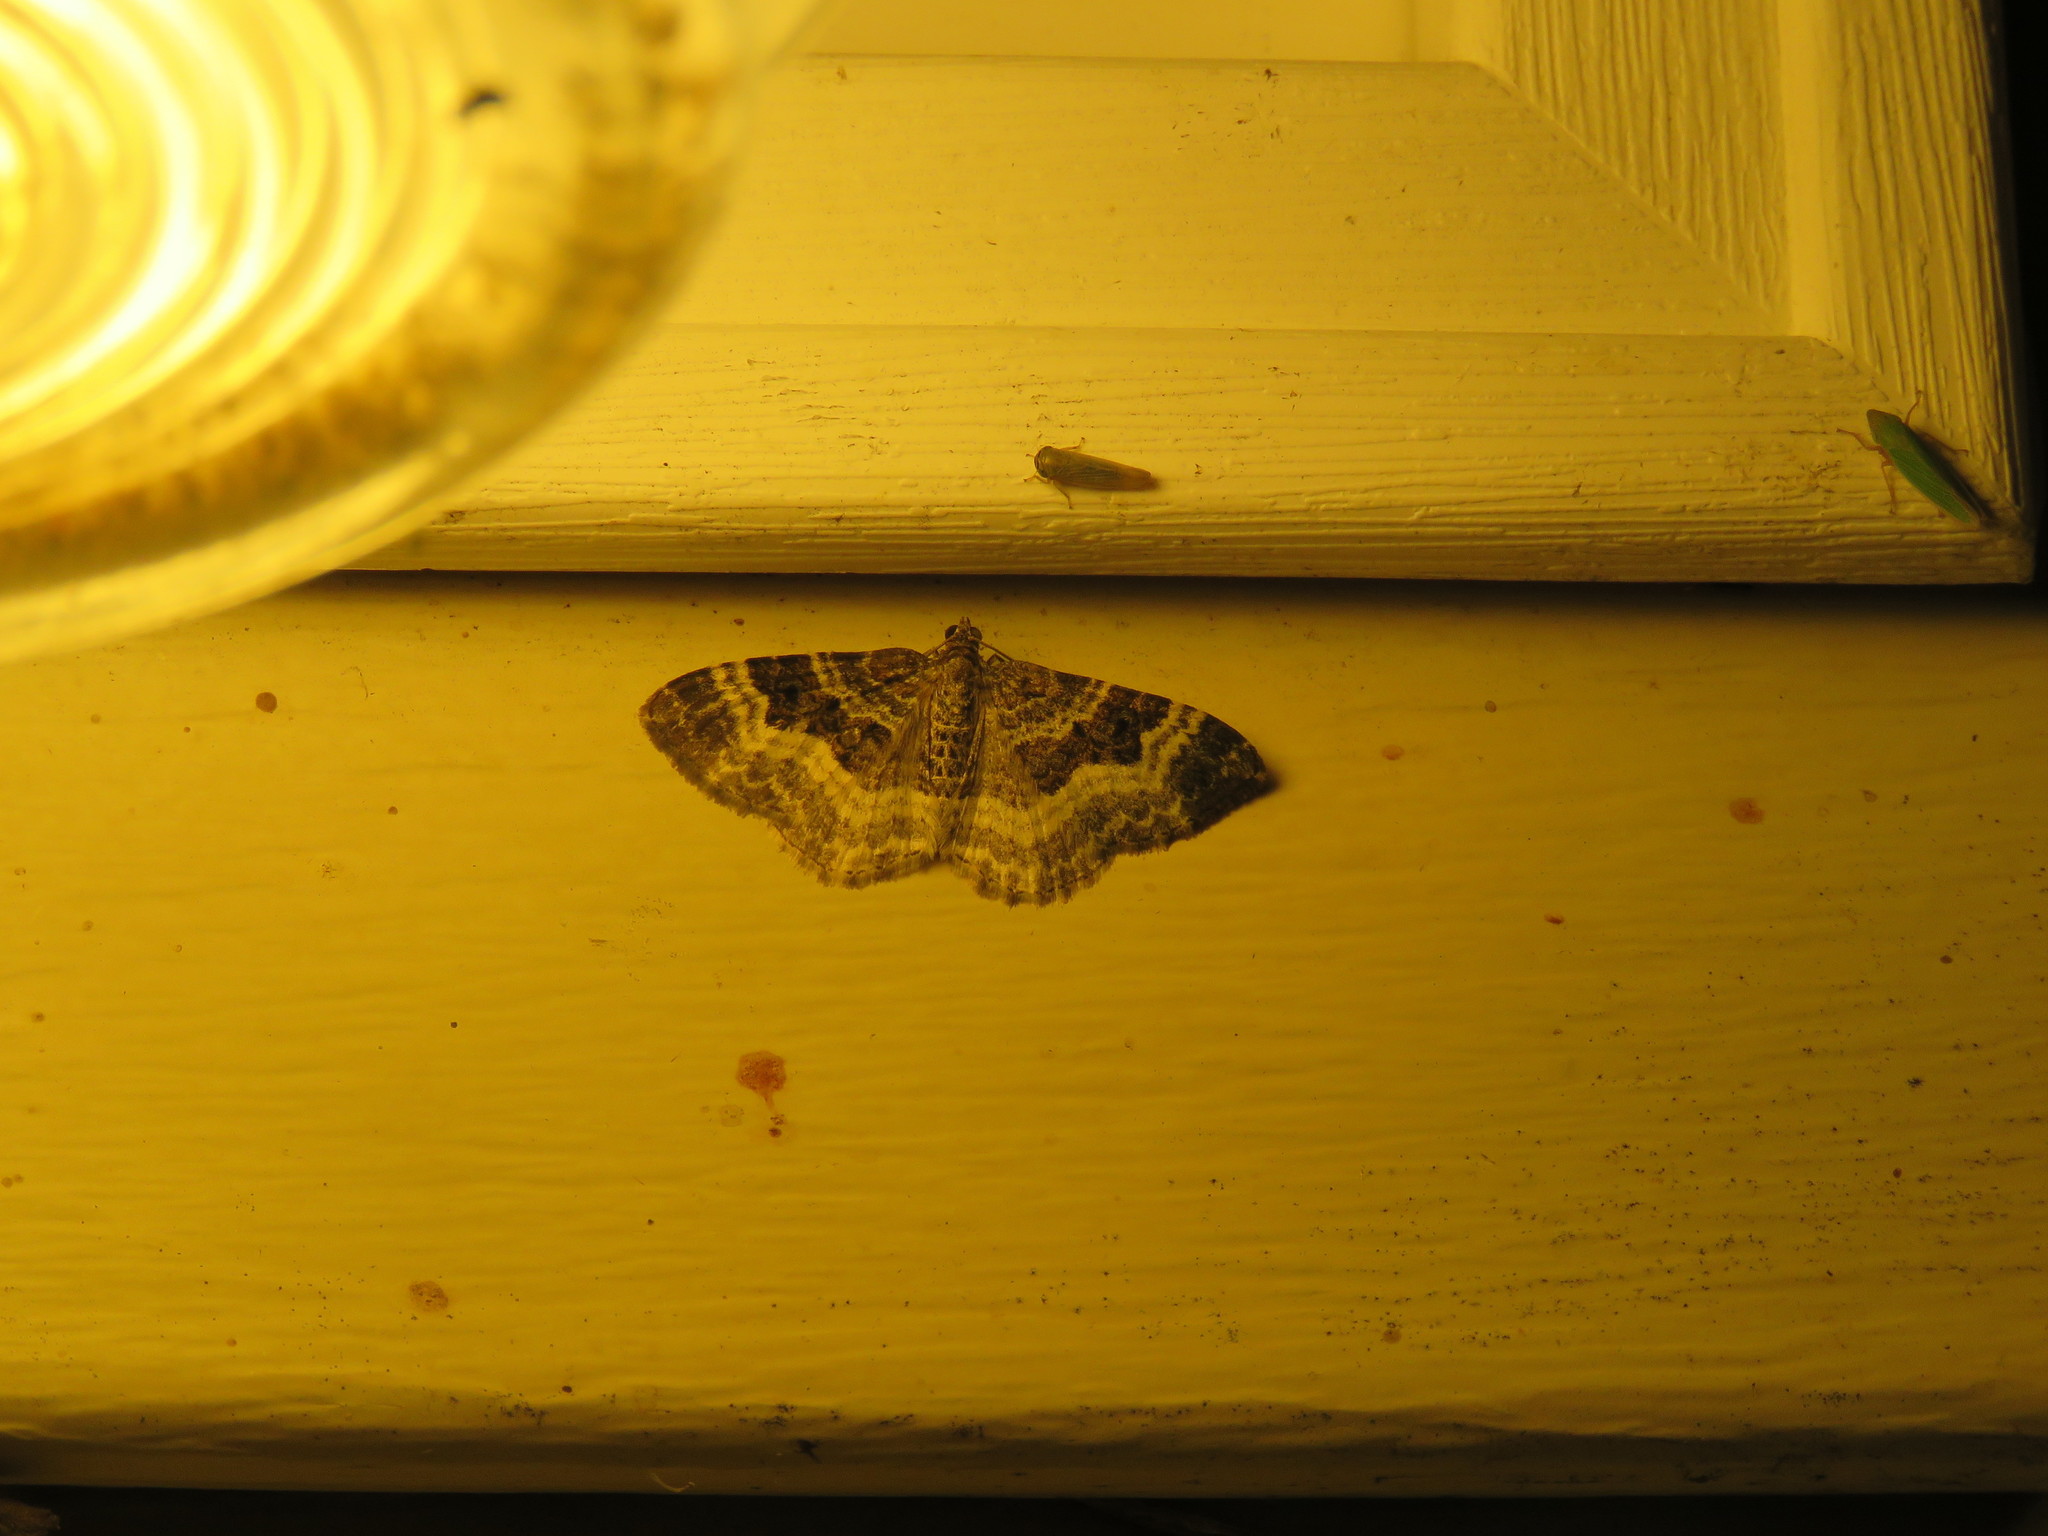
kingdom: Animalia
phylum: Arthropoda
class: Insecta
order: Lepidoptera
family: Geometridae
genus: Epirrhoe
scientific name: Epirrhoe alternata
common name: Common carpet
